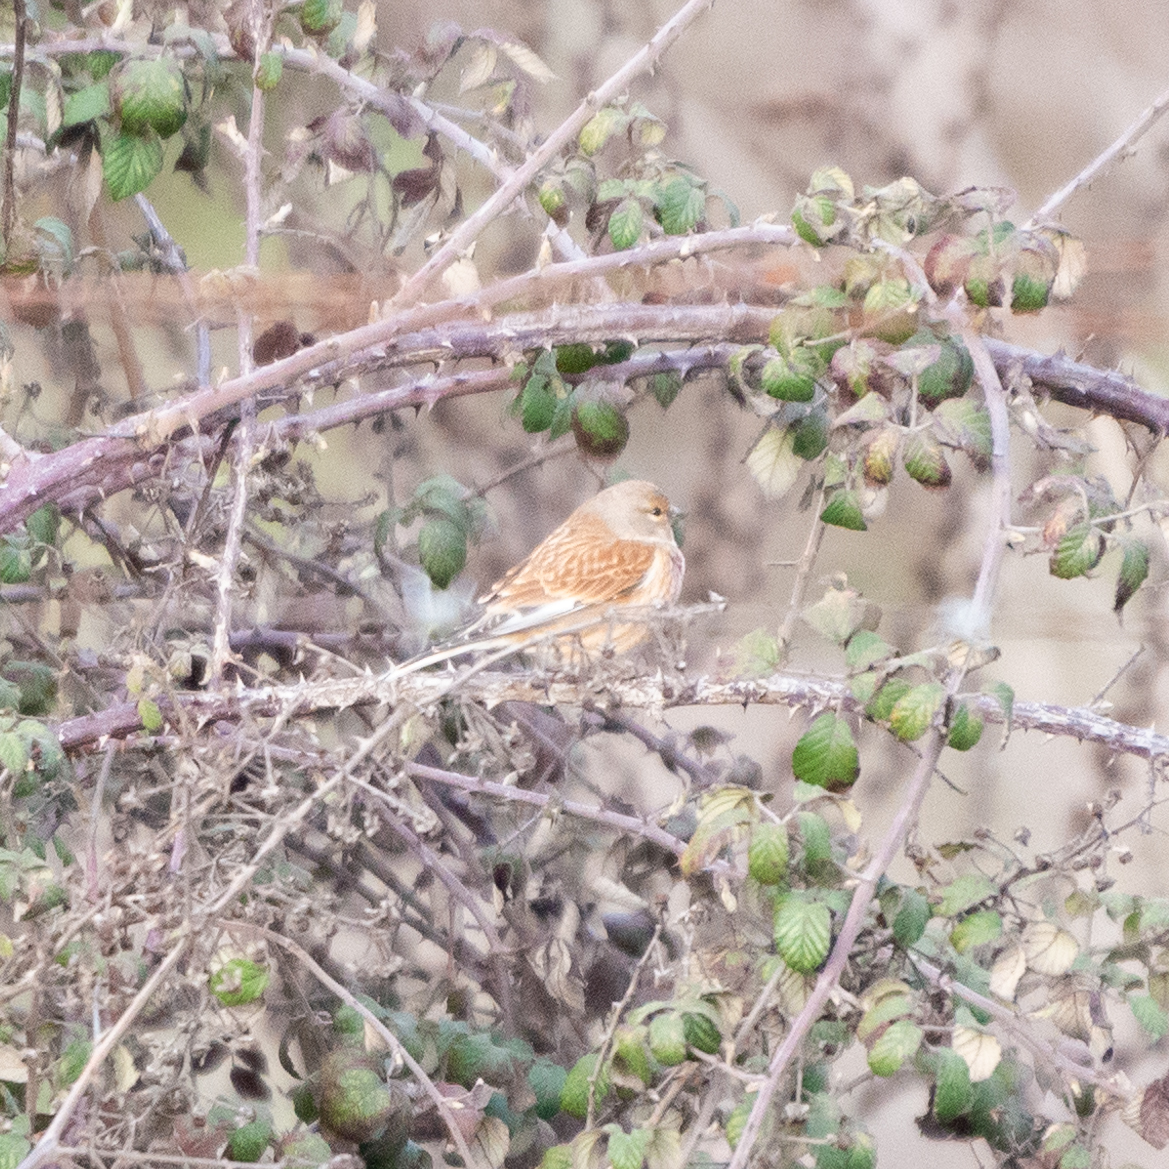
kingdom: Animalia
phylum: Chordata
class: Aves
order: Passeriformes
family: Fringillidae
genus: Linaria
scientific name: Linaria cannabina
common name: Common linnet
